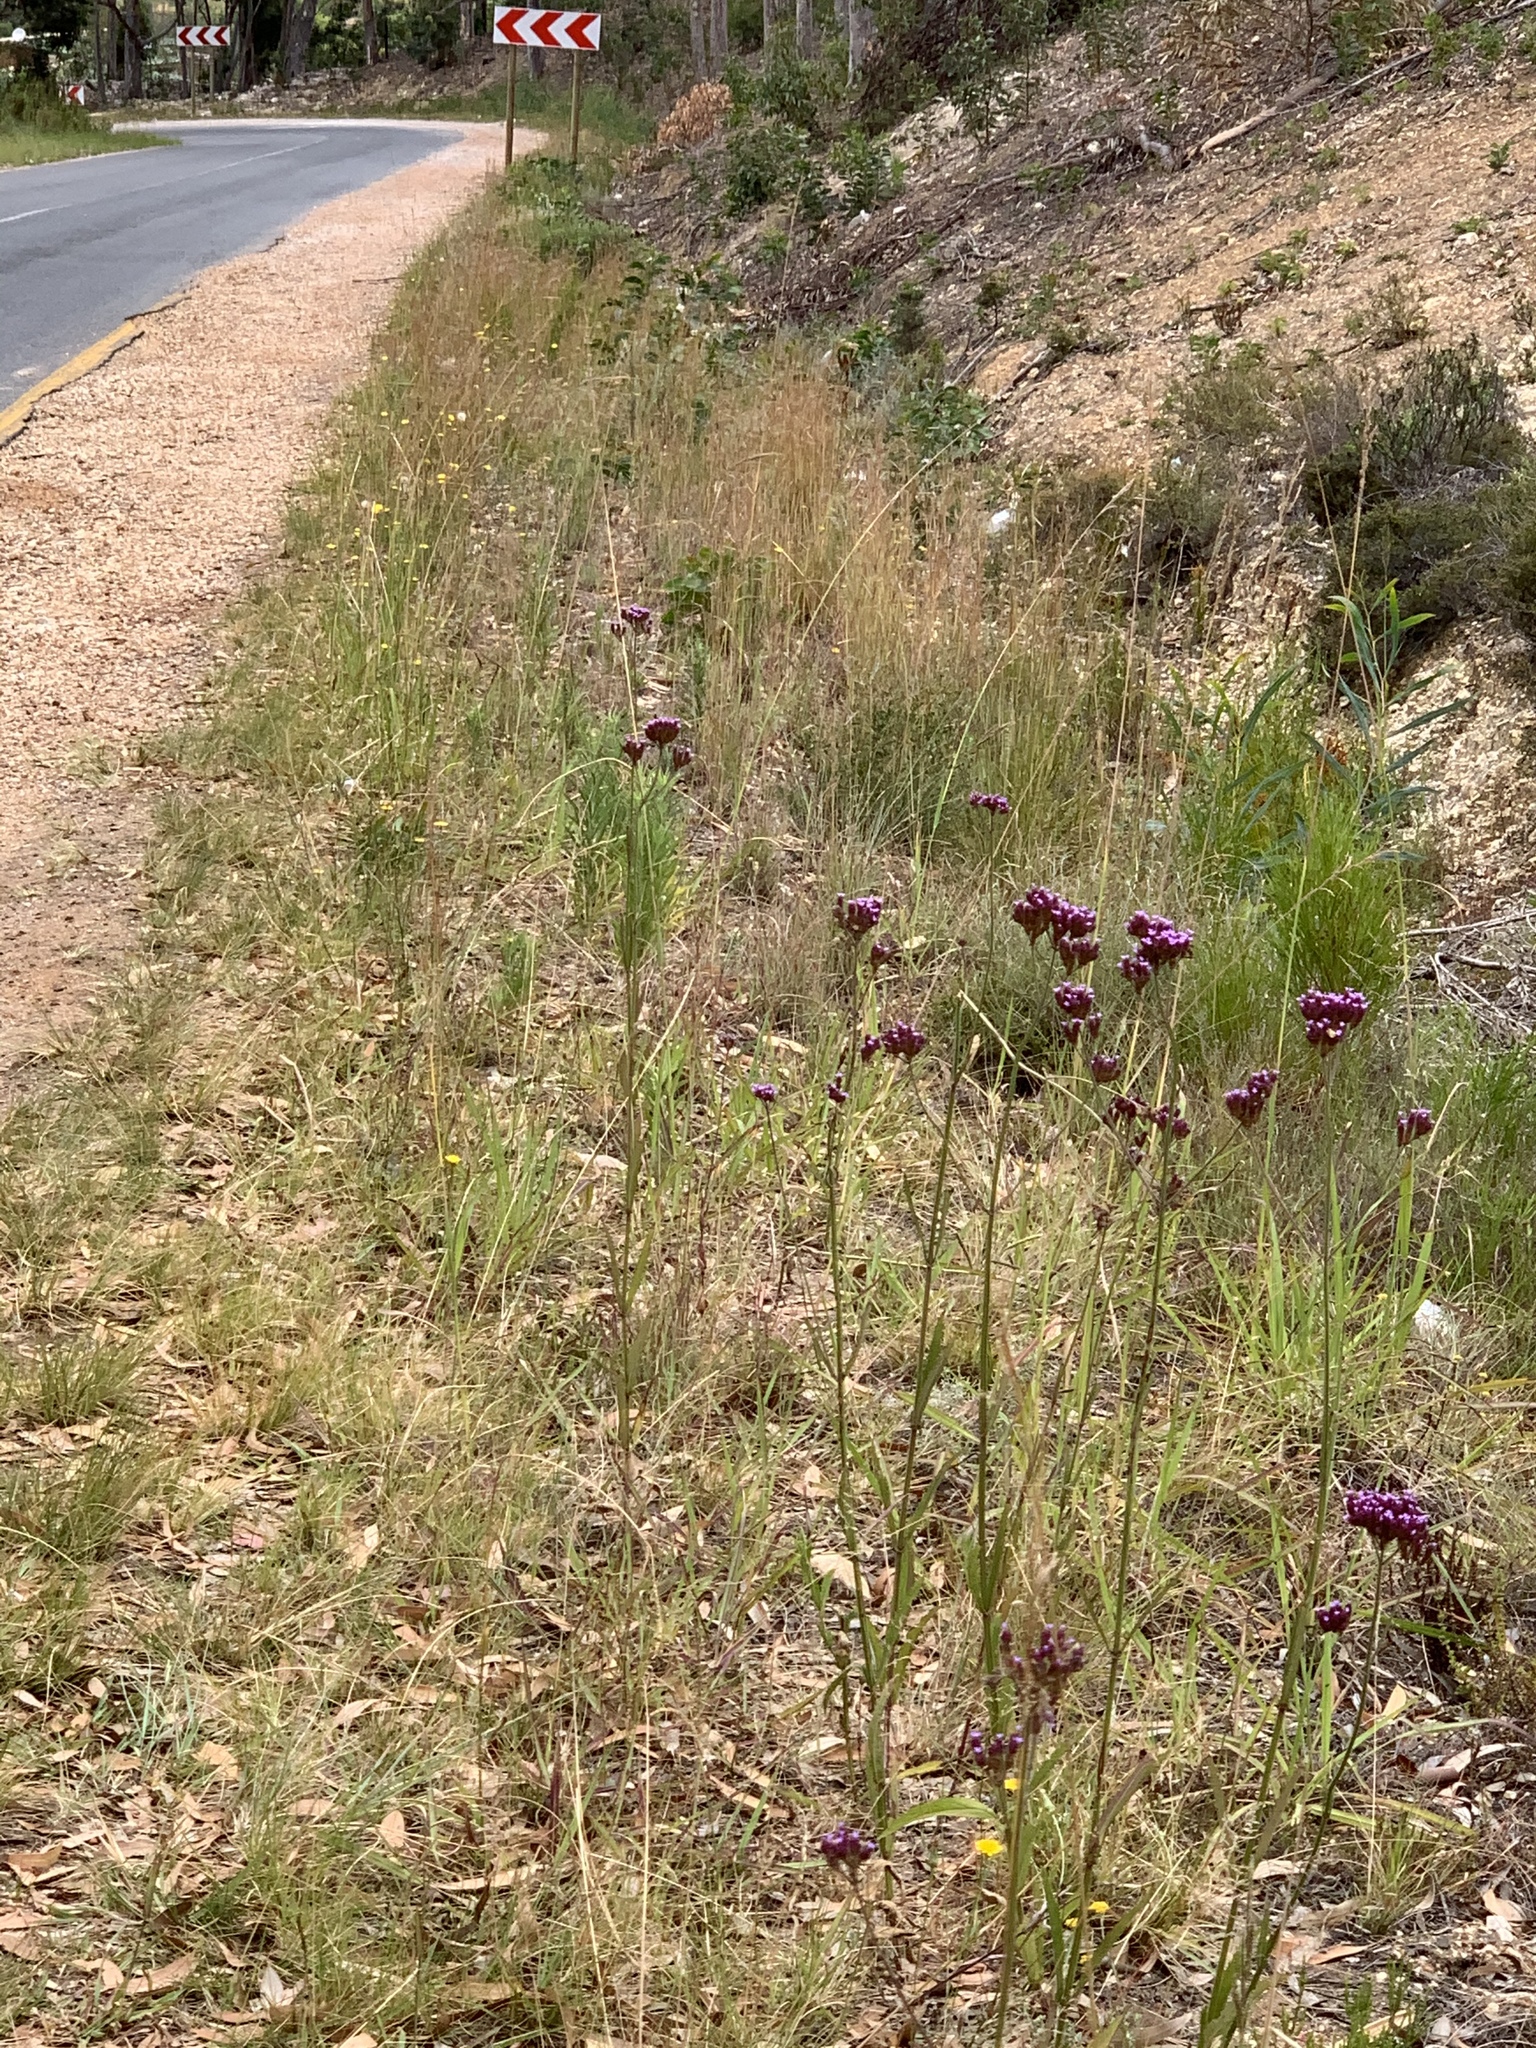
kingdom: Plantae
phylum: Tracheophyta
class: Magnoliopsida
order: Lamiales
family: Verbenaceae
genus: Verbena
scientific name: Verbena bonariensis
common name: Purpletop vervain
